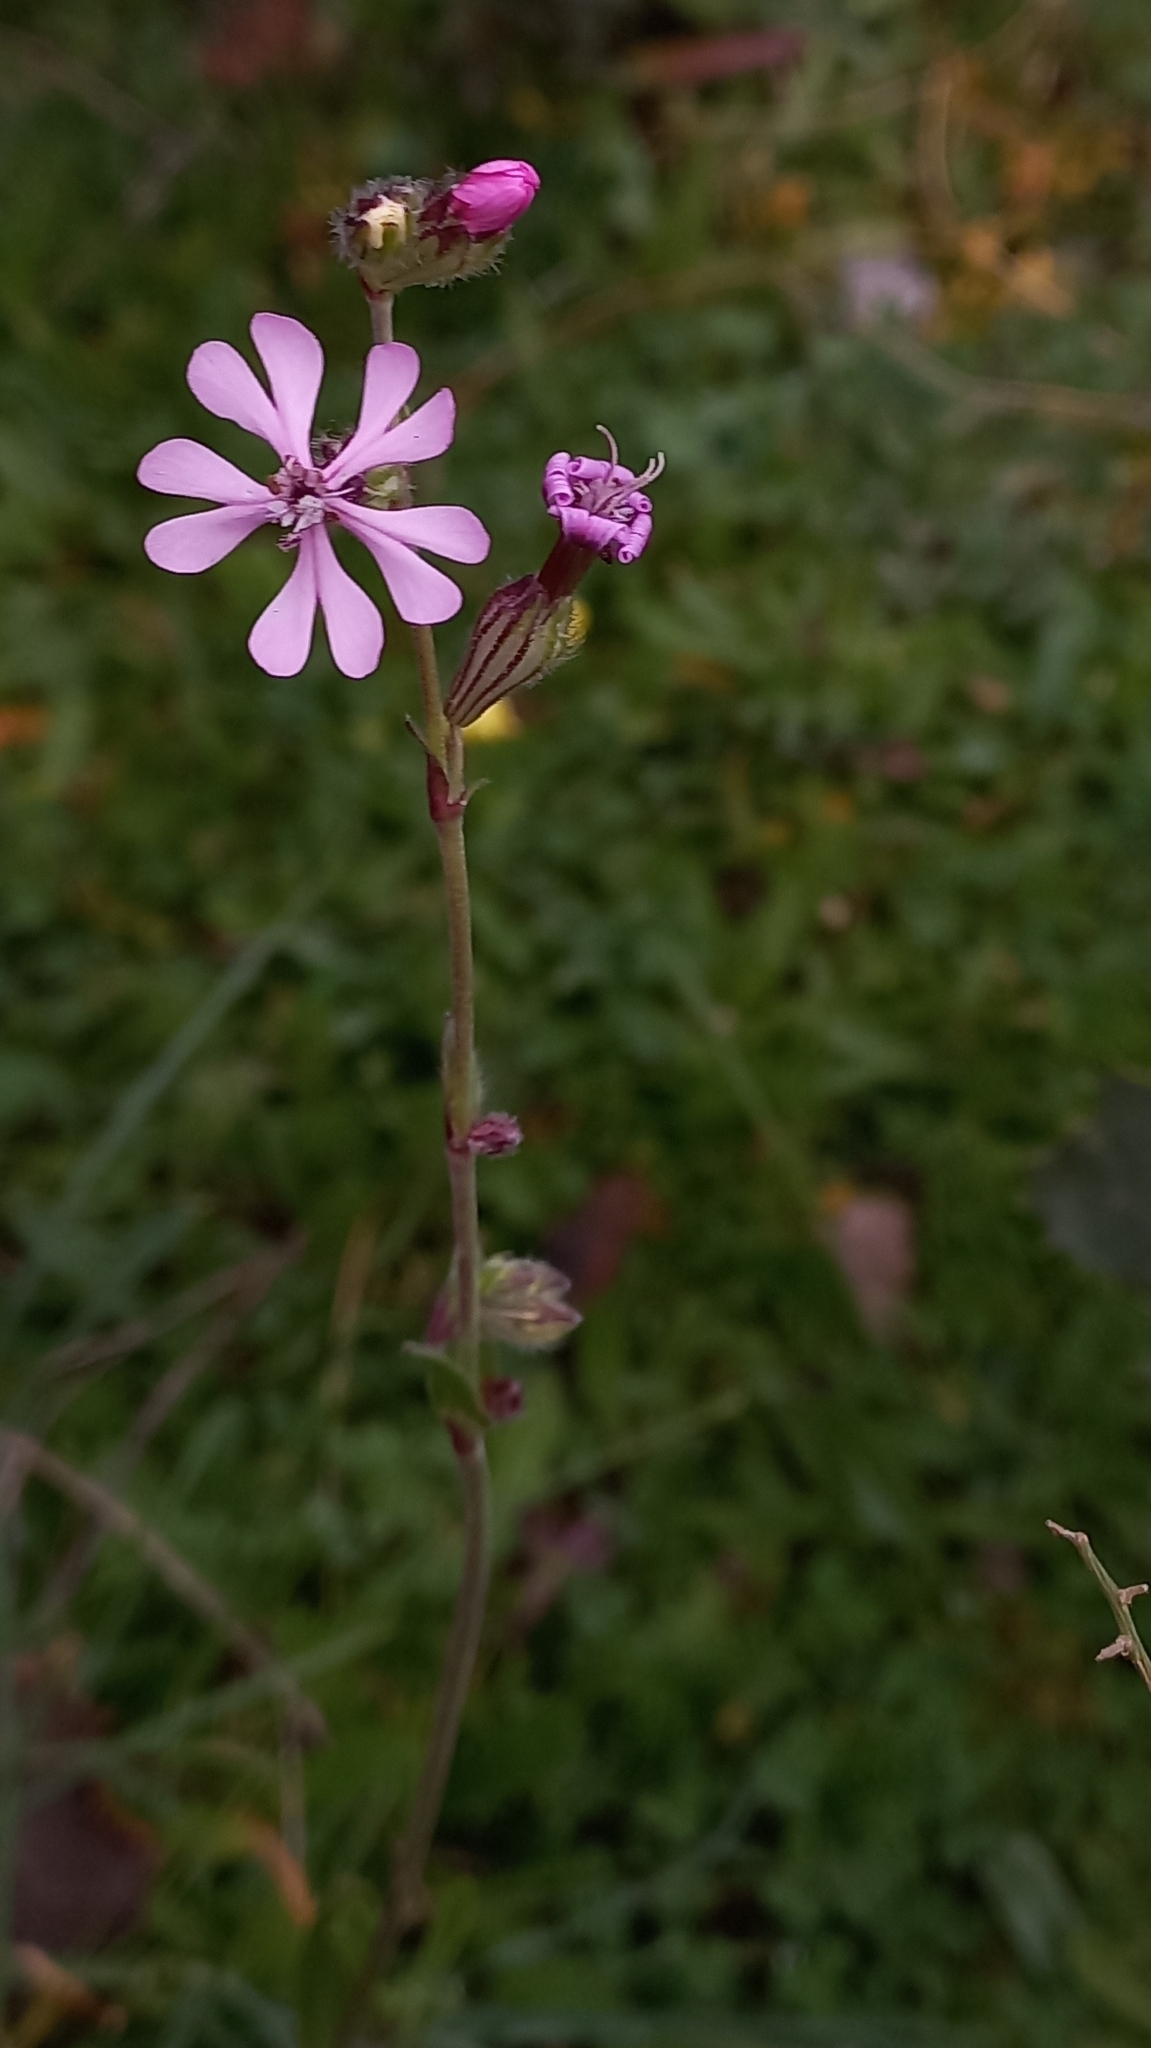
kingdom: Plantae
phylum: Tracheophyta
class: Magnoliopsida
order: Caryophyllales
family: Caryophyllaceae
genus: Silene
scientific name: Silene colorata
